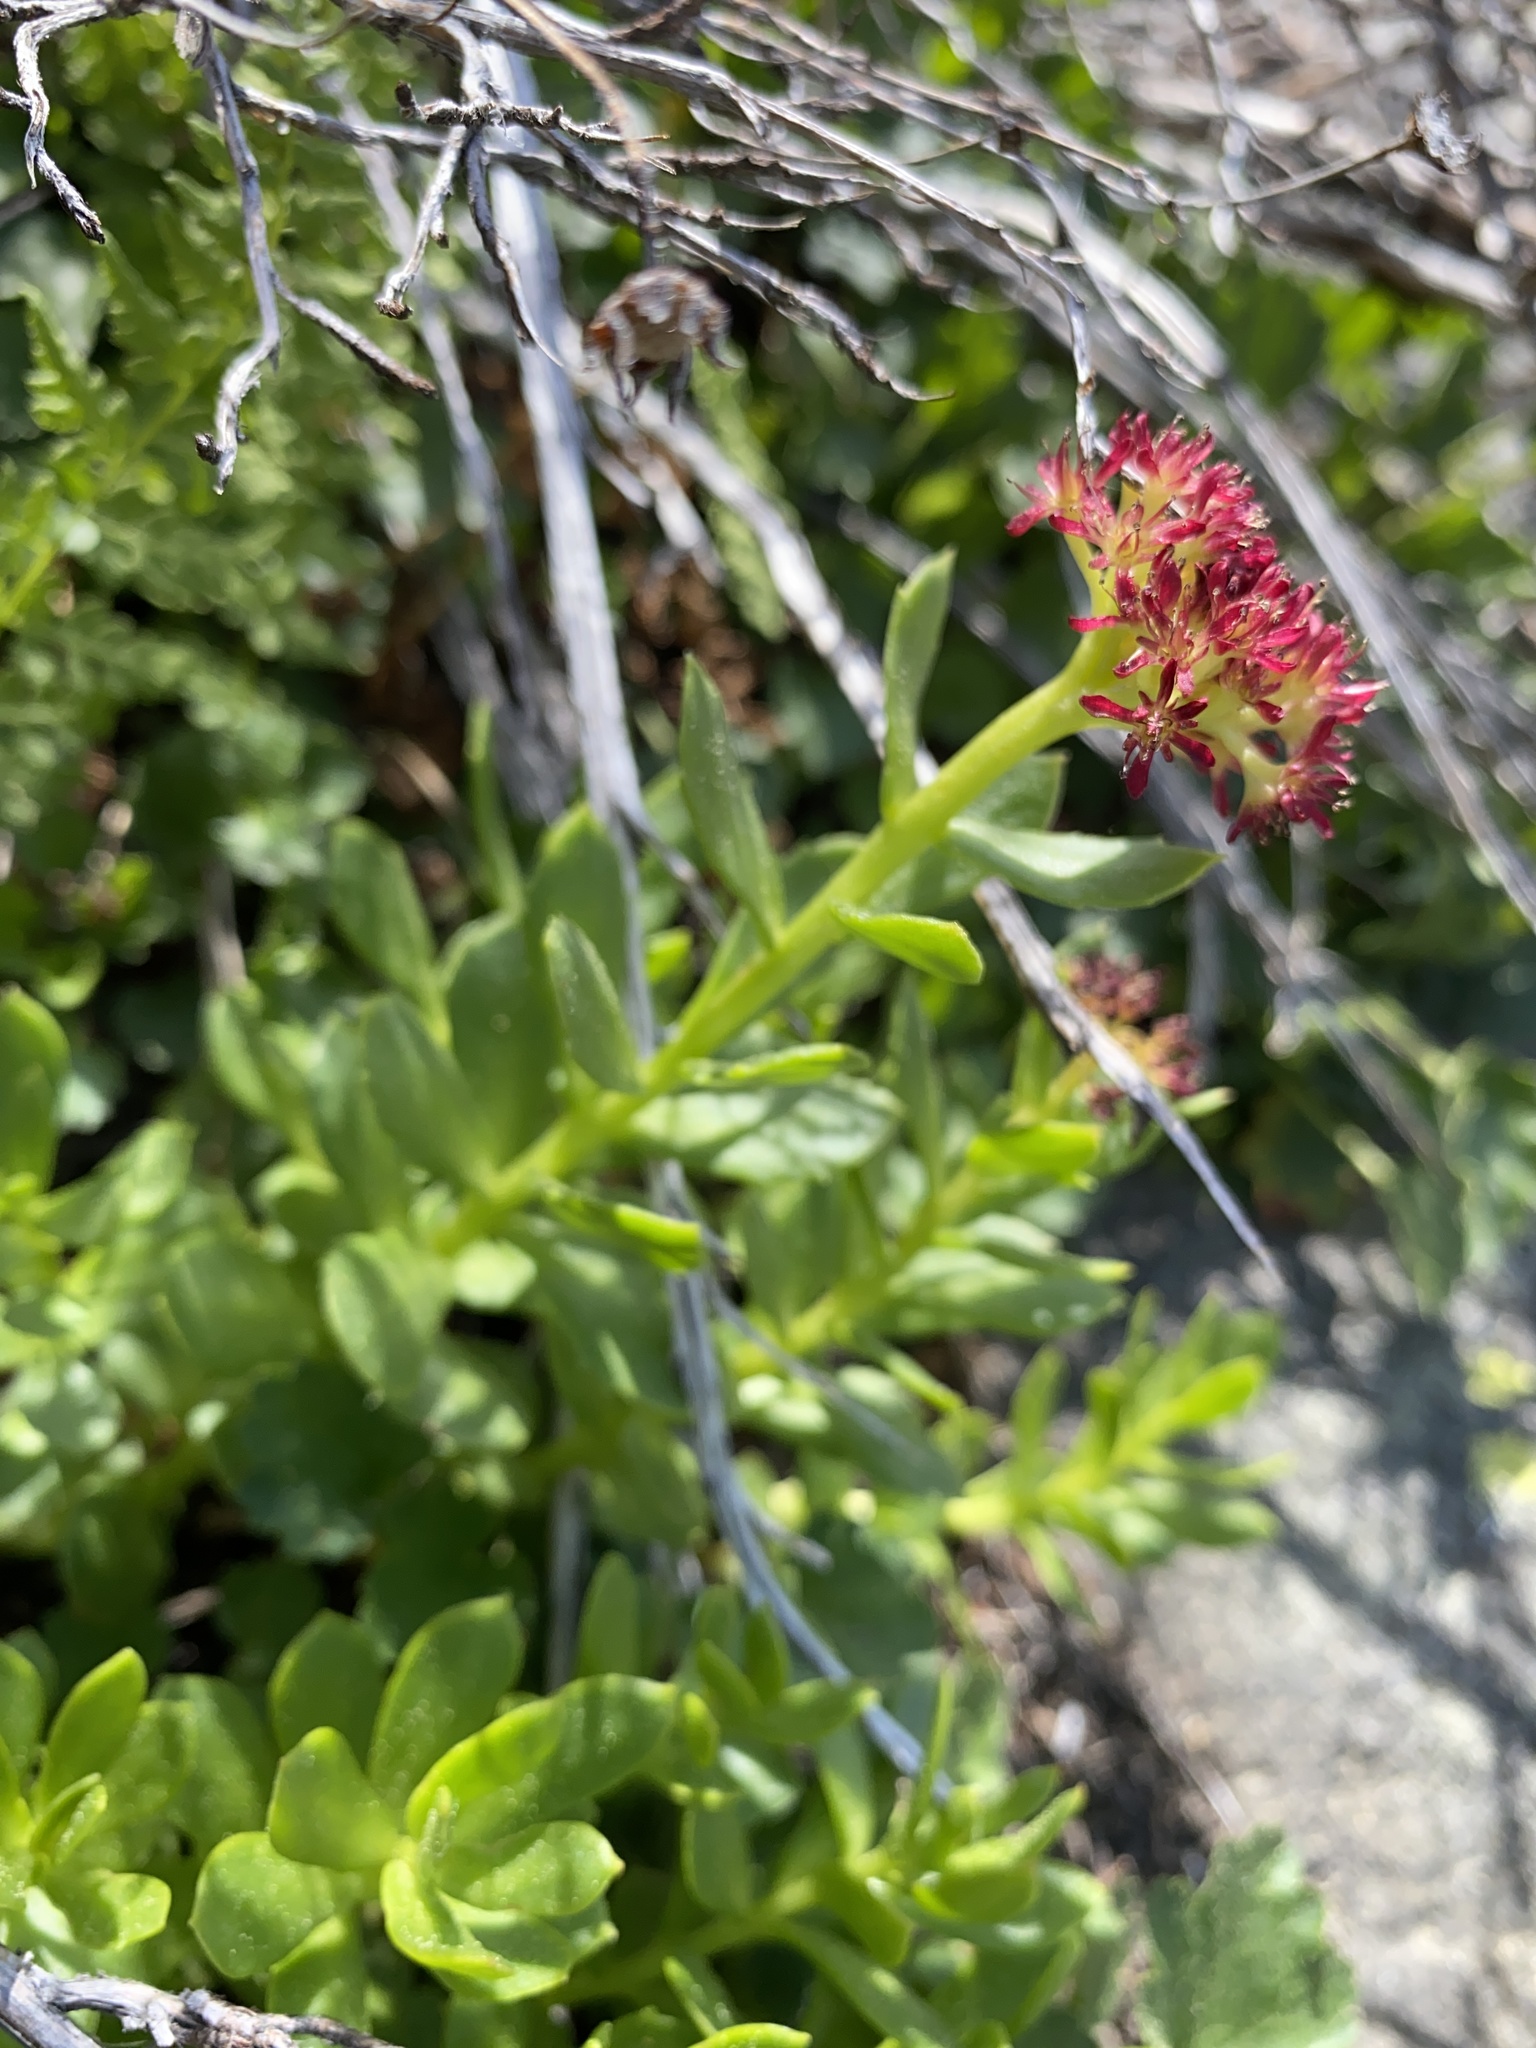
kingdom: Plantae
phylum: Tracheophyta
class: Magnoliopsida
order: Saxifragales
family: Crassulaceae
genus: Rhodiola
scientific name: Rhodiola integrifolia
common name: Western roseroot
